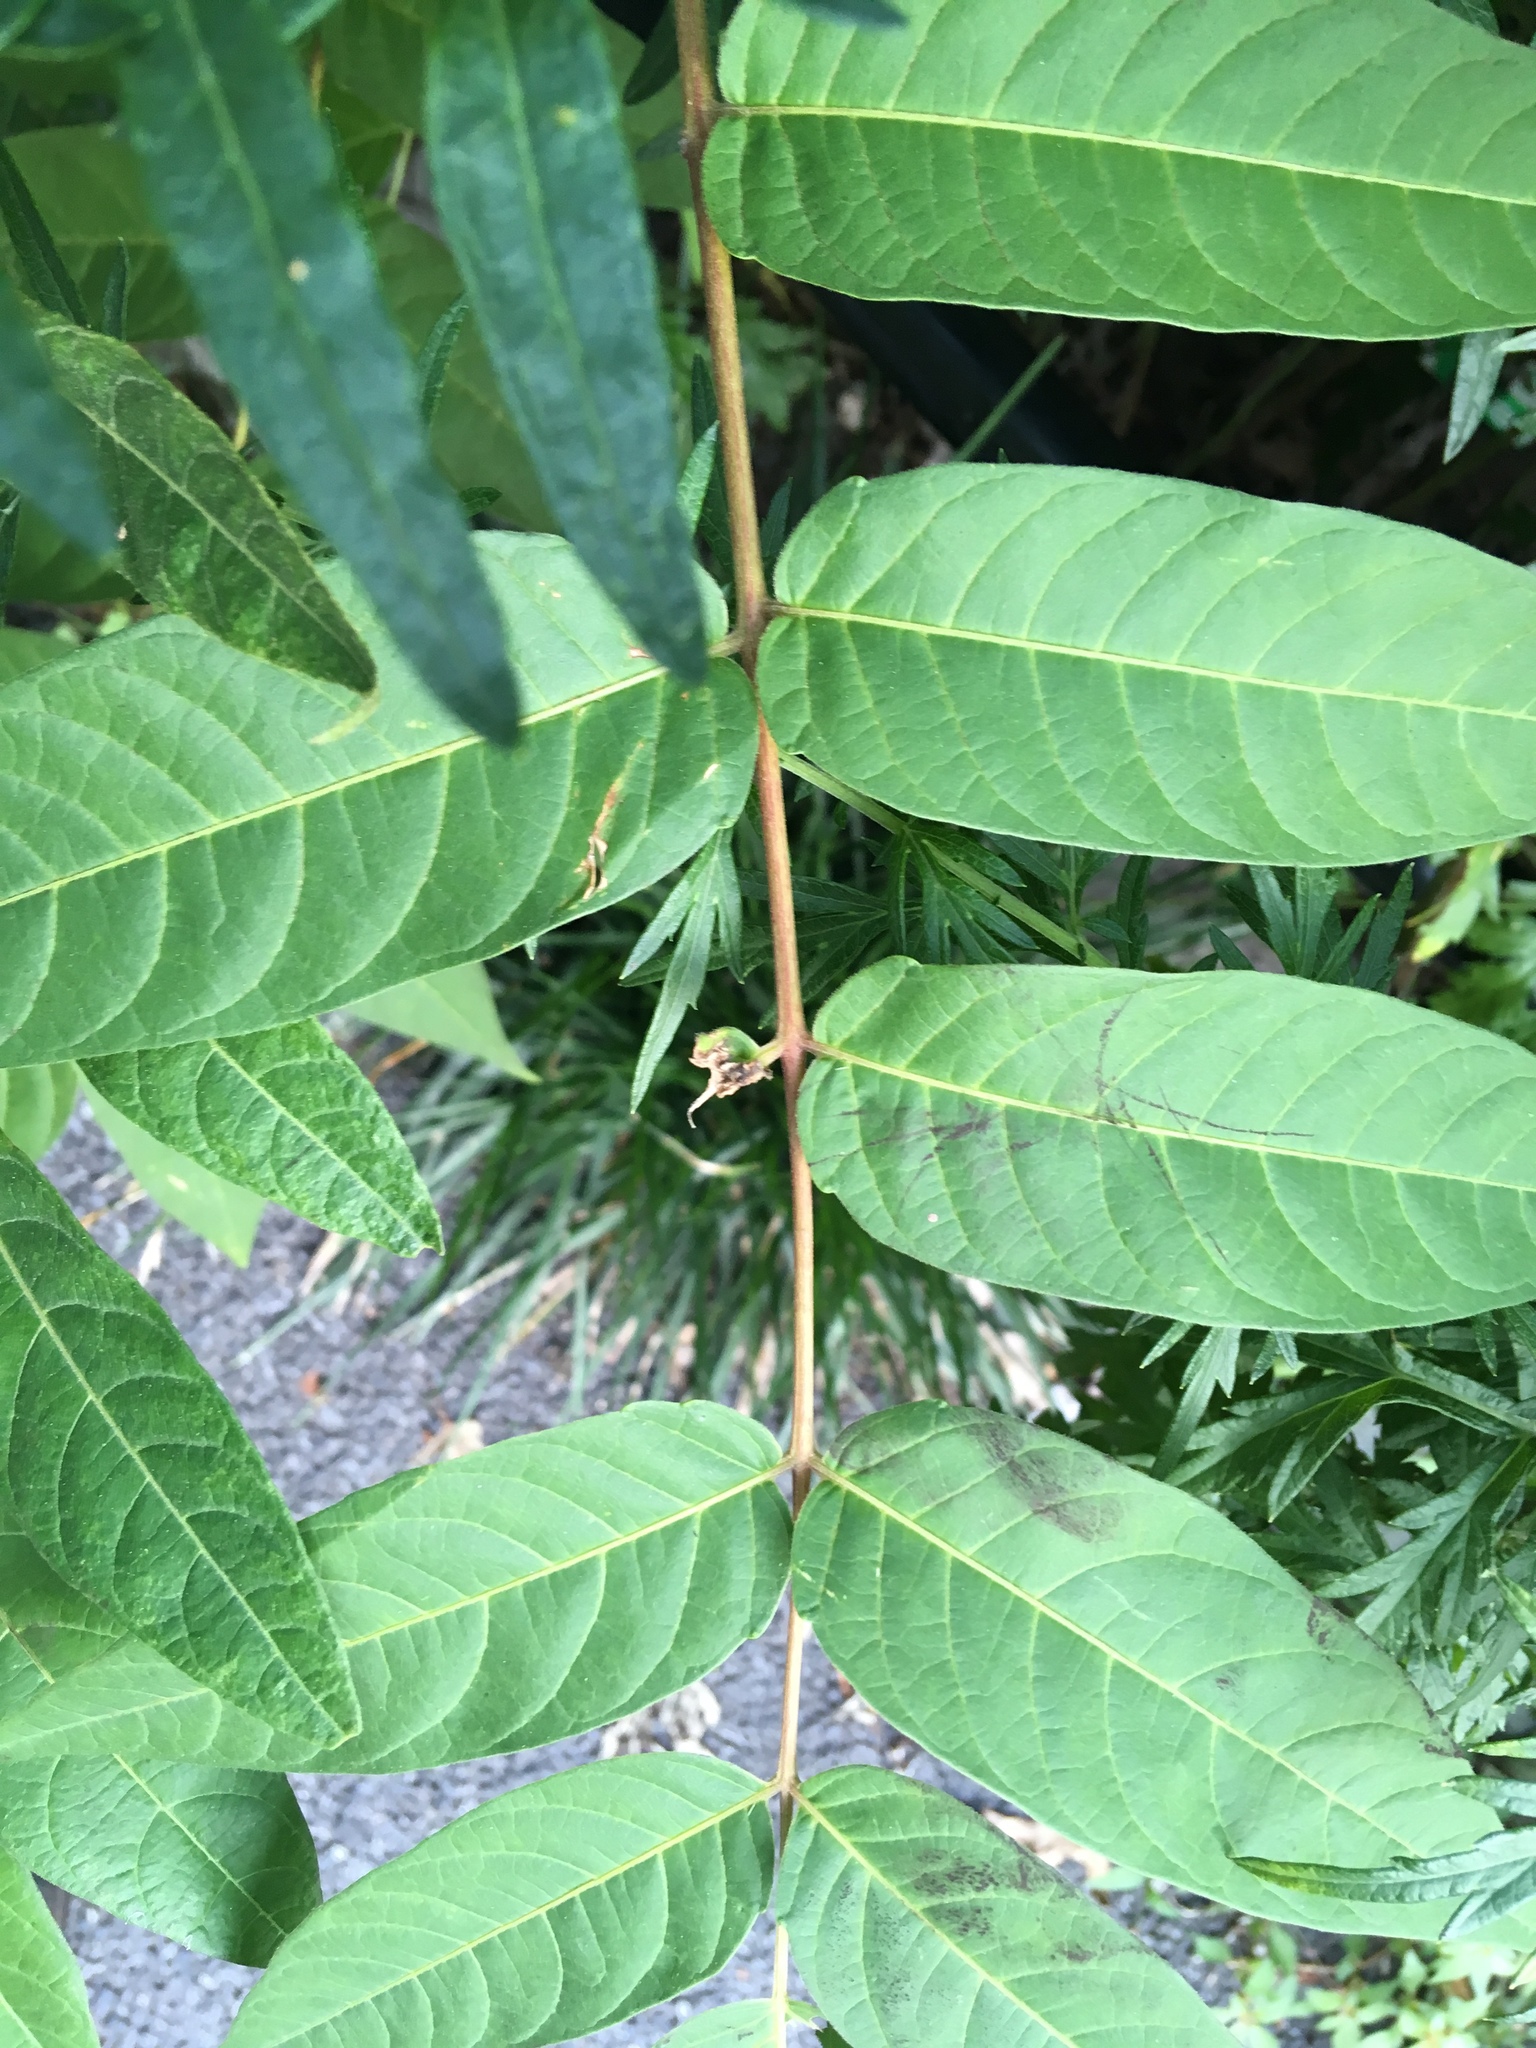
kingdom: Plantae
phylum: Tracheophyta
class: Magnoliopsida
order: Sapindales
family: Simaroubaceae
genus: Ailanthus
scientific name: Ailanthus altissima
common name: Tree-of-heaven
